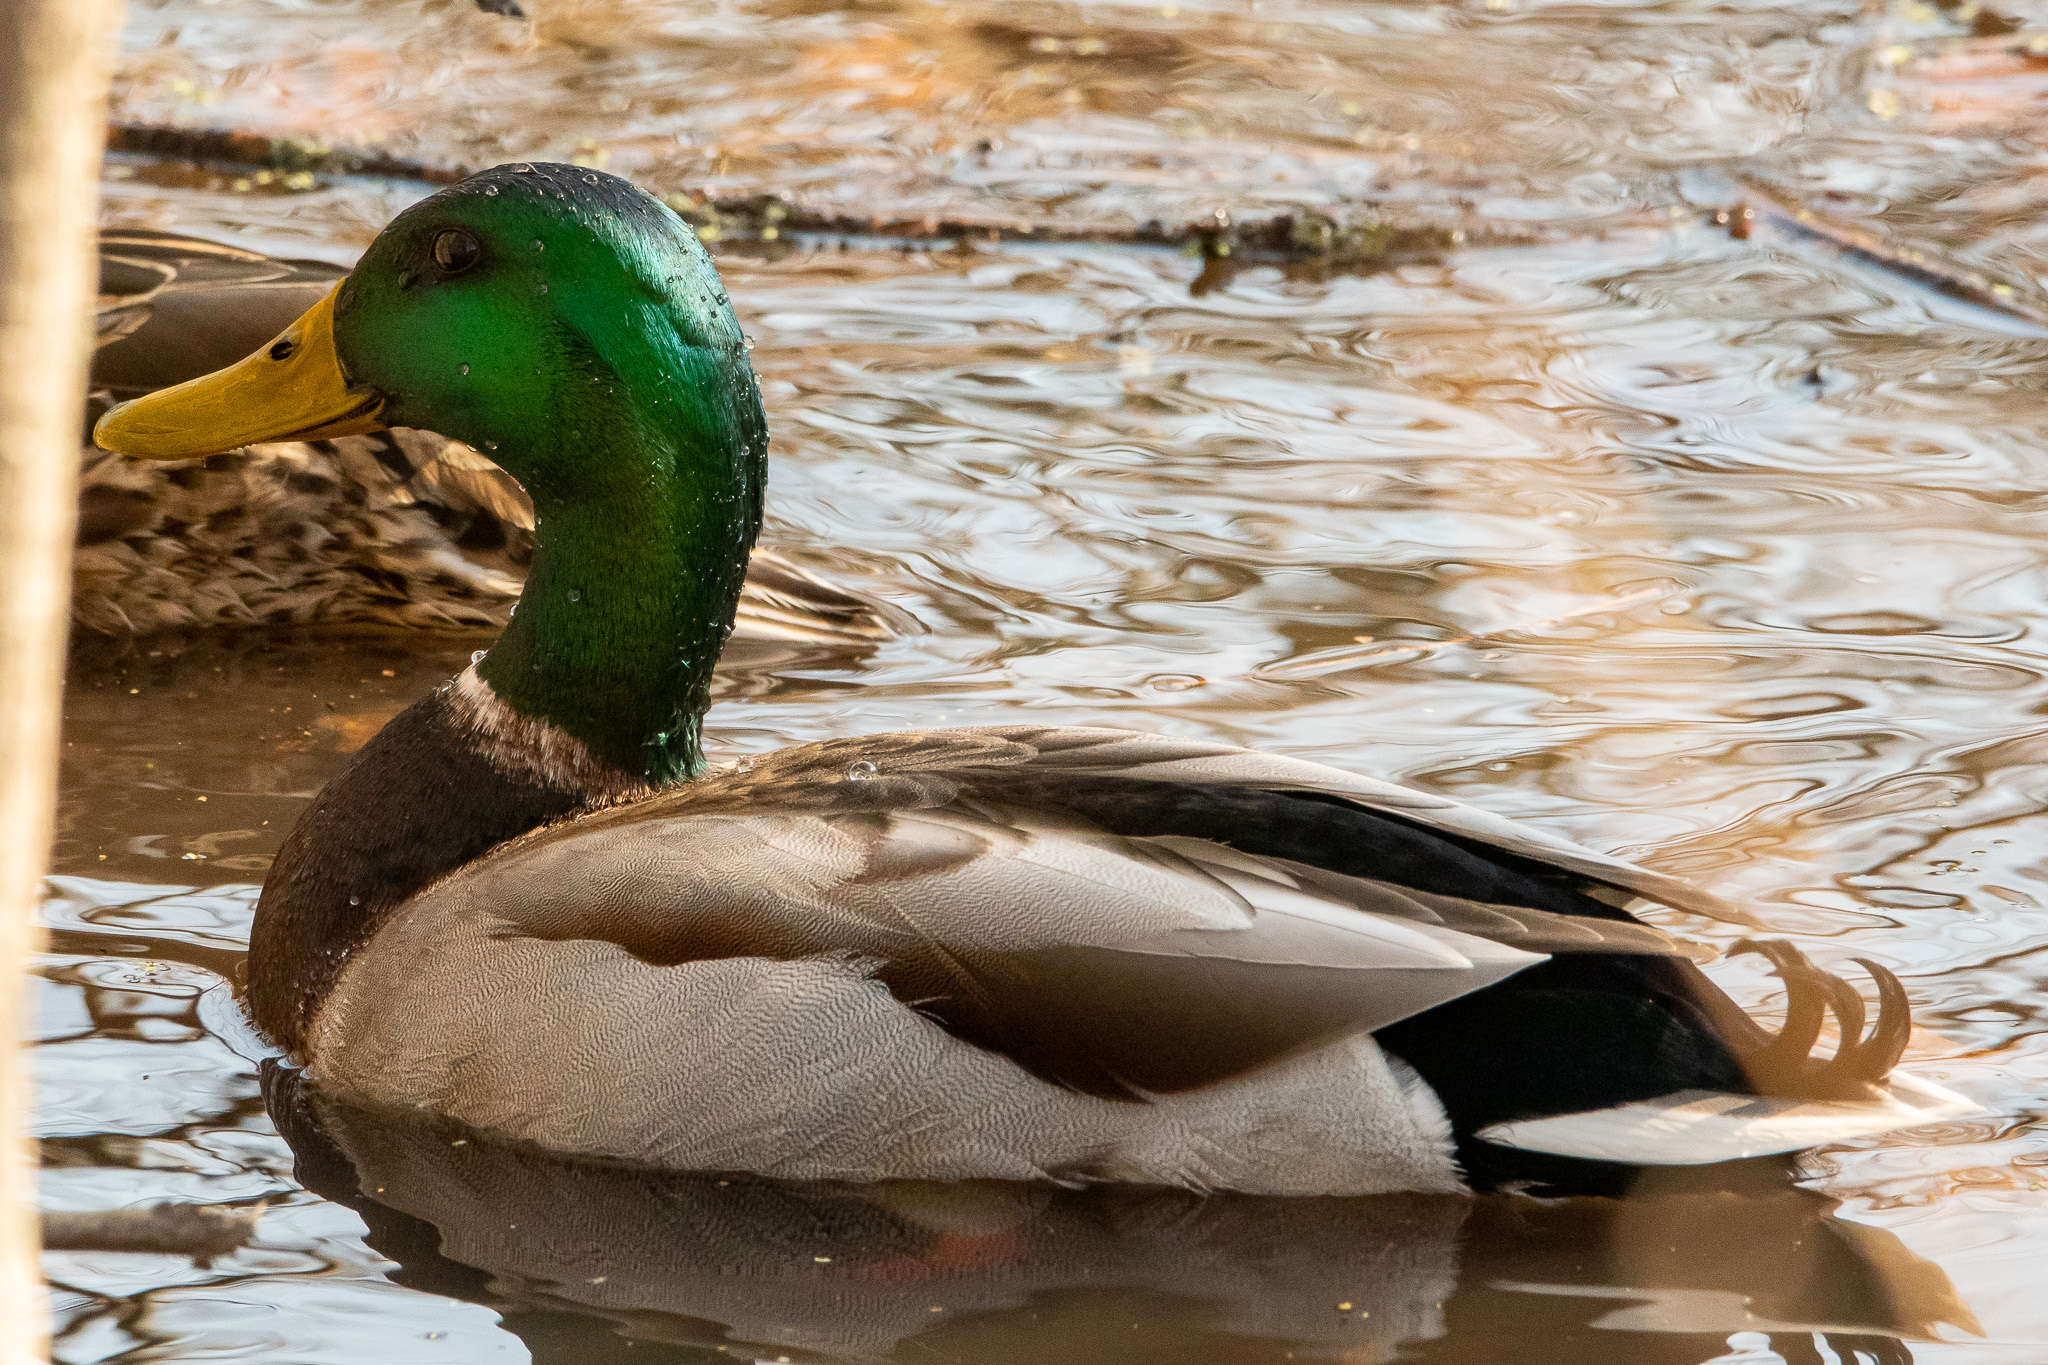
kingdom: Animalia
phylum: Chordata
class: Aves
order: Anseriformes
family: Anatidae
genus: Anas
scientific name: Anas platyrhynchos
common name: Mallard
